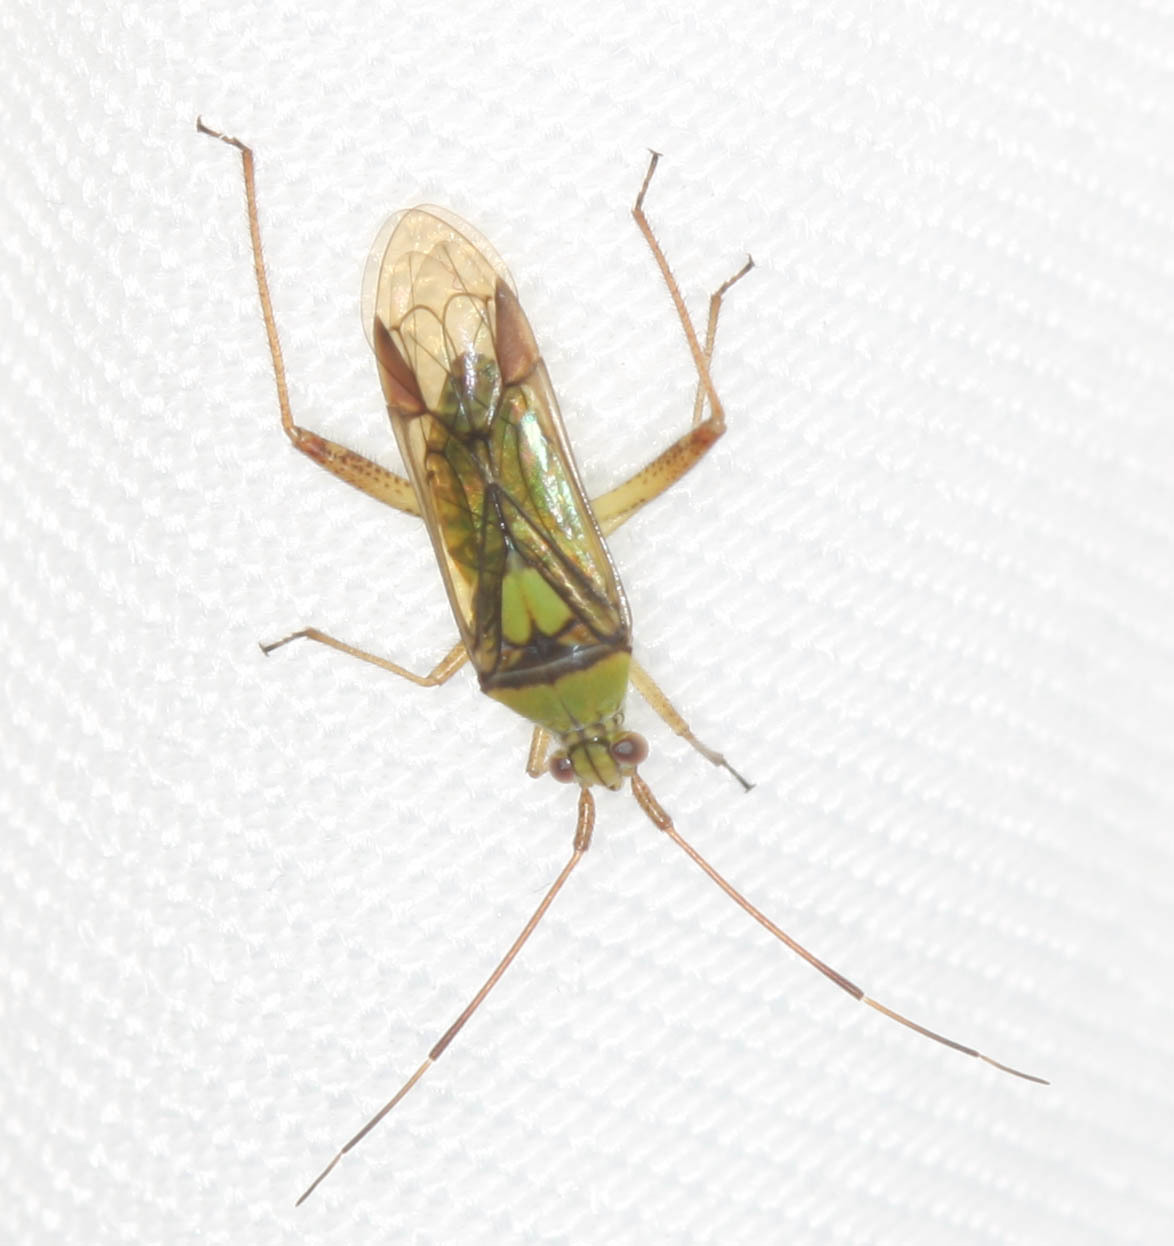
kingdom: Animalia
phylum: Arthropoda
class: Insecta
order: Hemiptera
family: Miridae
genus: Hyalopeplus
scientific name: Hyalopeplus pellucidus
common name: Plant bug
